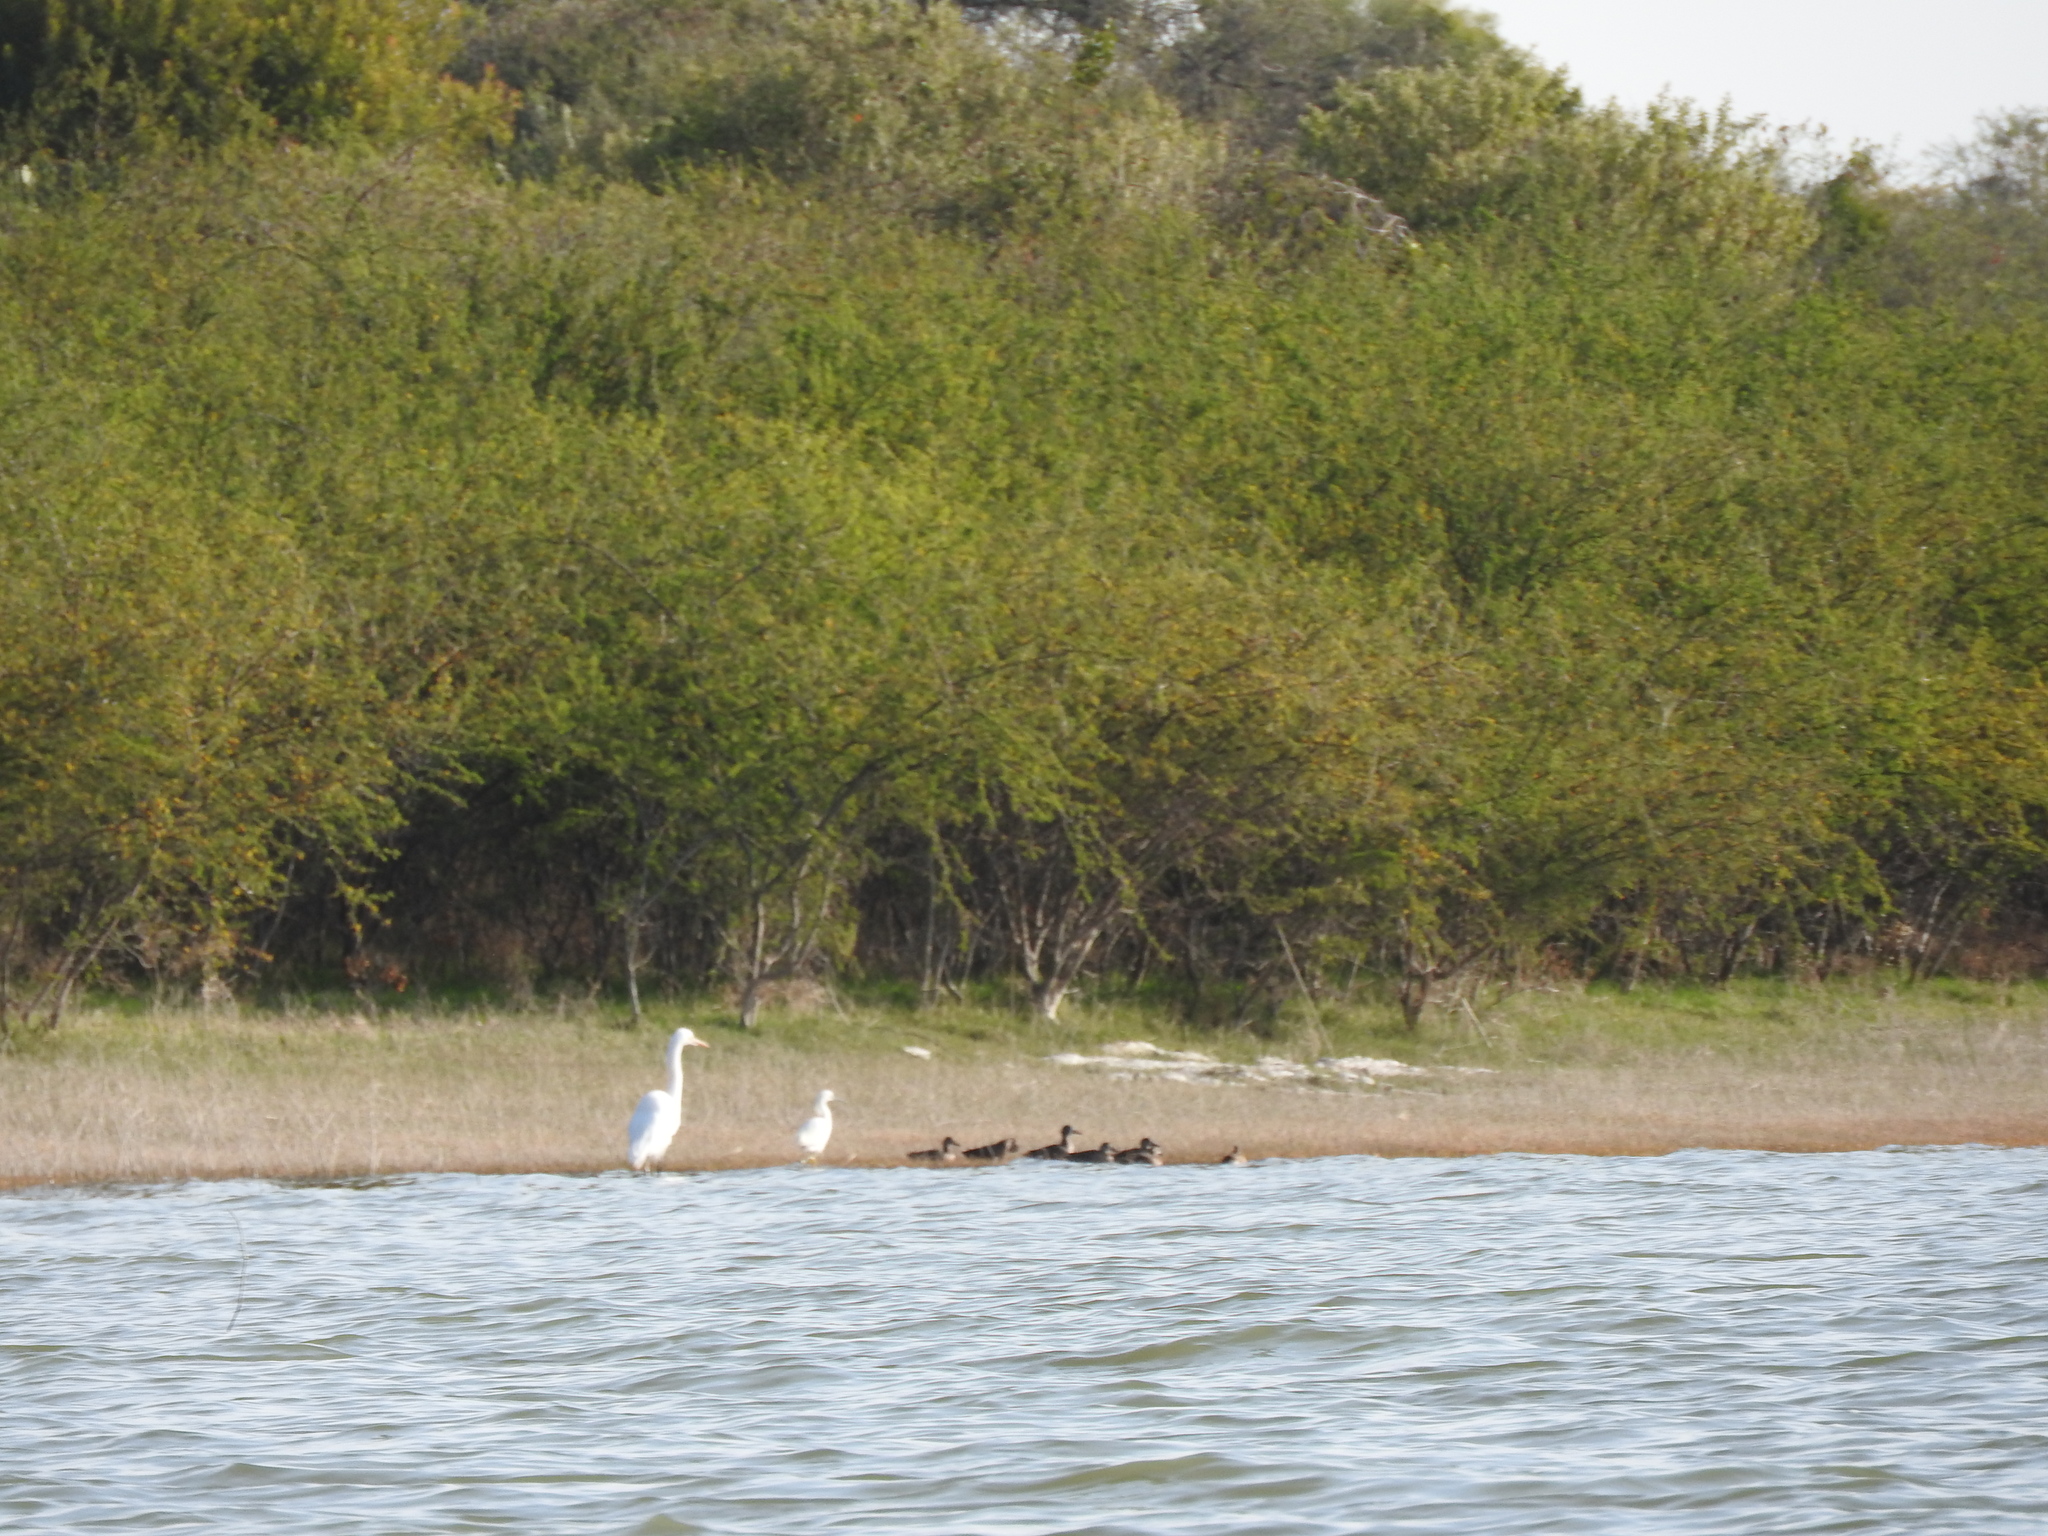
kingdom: Animalia
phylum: Chordata
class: Aves
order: Pelecaniformes
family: Ardeidae
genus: Ardea
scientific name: Ardea alba
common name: Great egret
